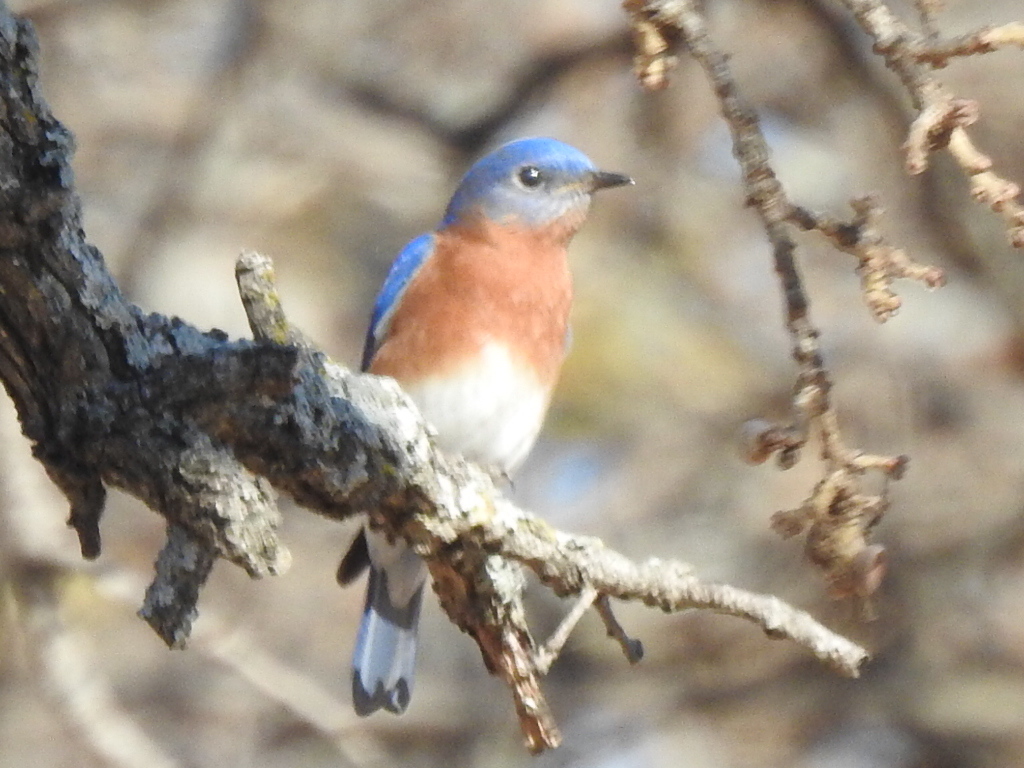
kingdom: Animalia
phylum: Chordata
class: Aves
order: Passeriformes
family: Turdidae
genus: Sialia
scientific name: Sialia sialis
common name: Eastern bluebird
